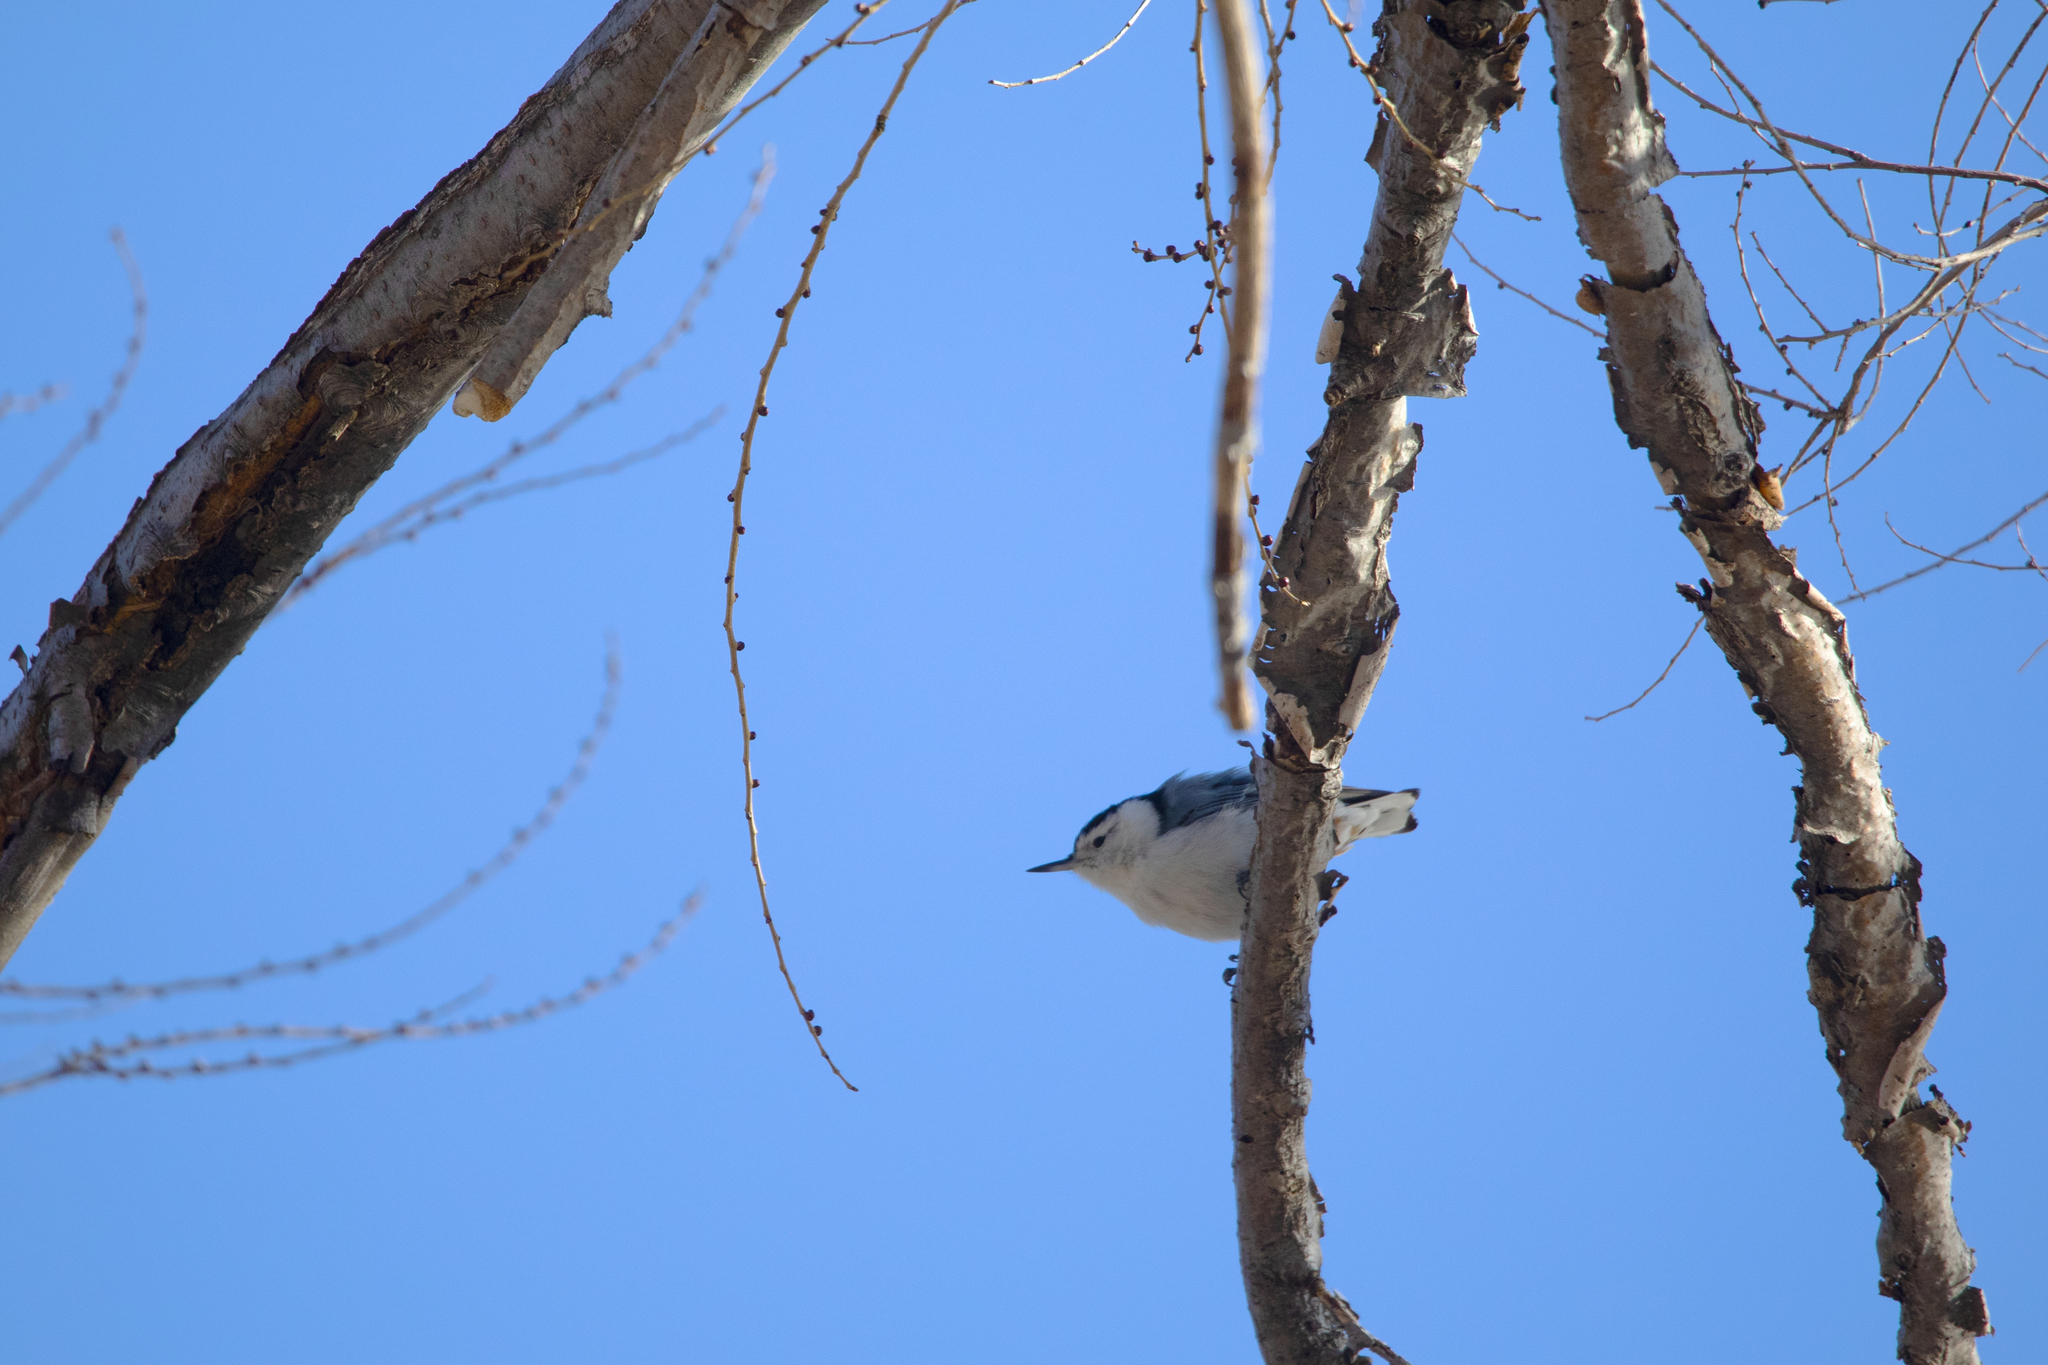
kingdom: Animalia
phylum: Chordata
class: Aves
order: Passeriformes
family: Sittidae
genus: Sitta
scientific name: Sitta carolinensis
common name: White-breasted nuthatch
